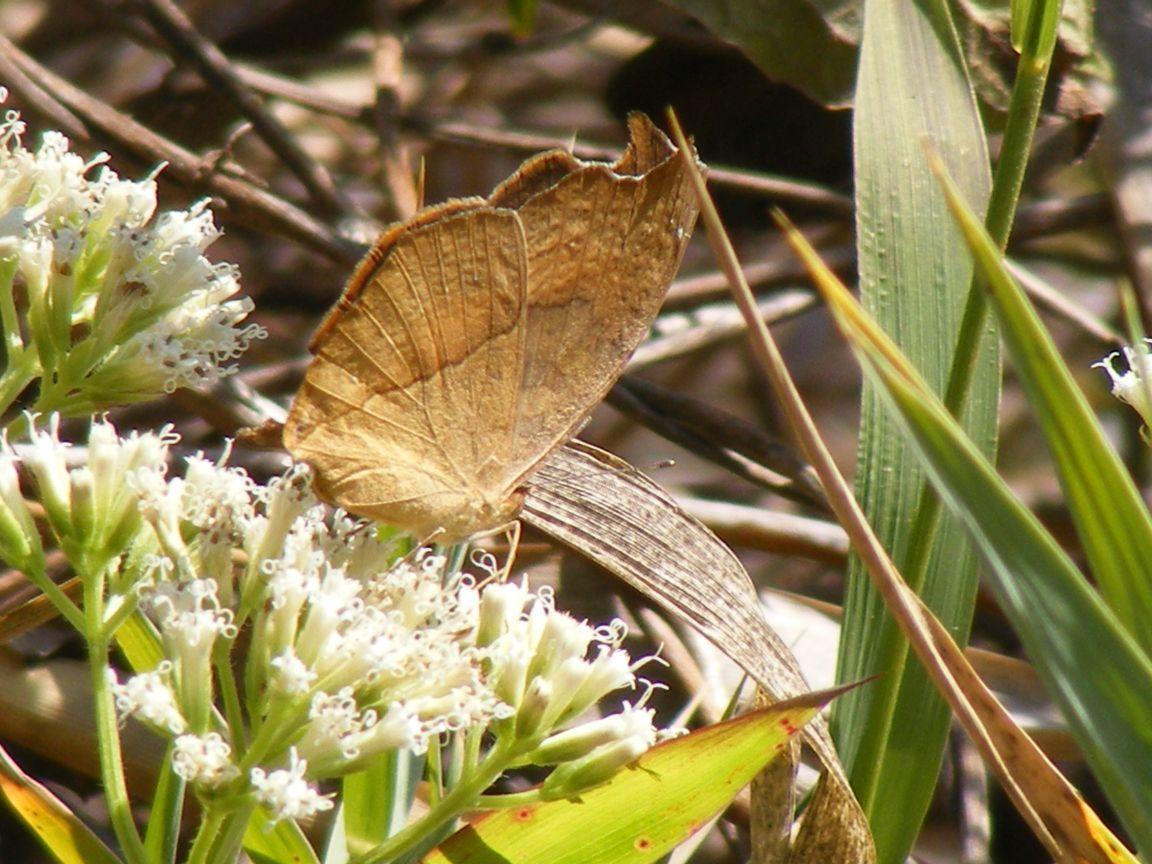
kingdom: Animalia
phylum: Arthropoda
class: Insecta
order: Lepidoptera
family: Nymphalidae
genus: Lachnoptera
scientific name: Lachnoptera ayresii
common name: Blotched leopard
